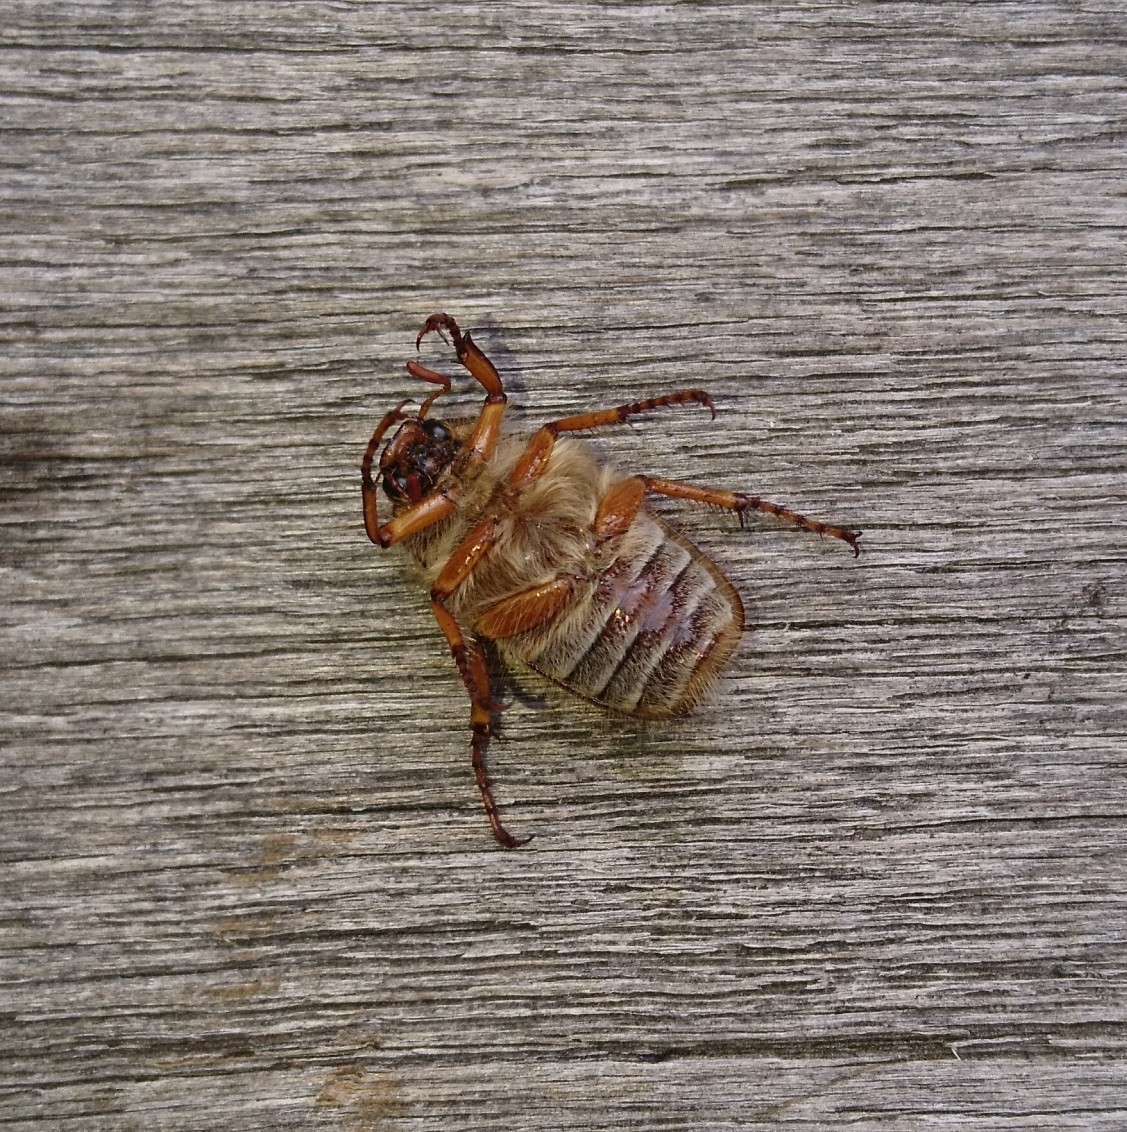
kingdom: Animalia
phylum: Arthropoda
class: Insecta
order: Coleoptera
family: Scarabaeidae
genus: Amphimallon
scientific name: Amphimallon solstitiale
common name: Summer chafer
